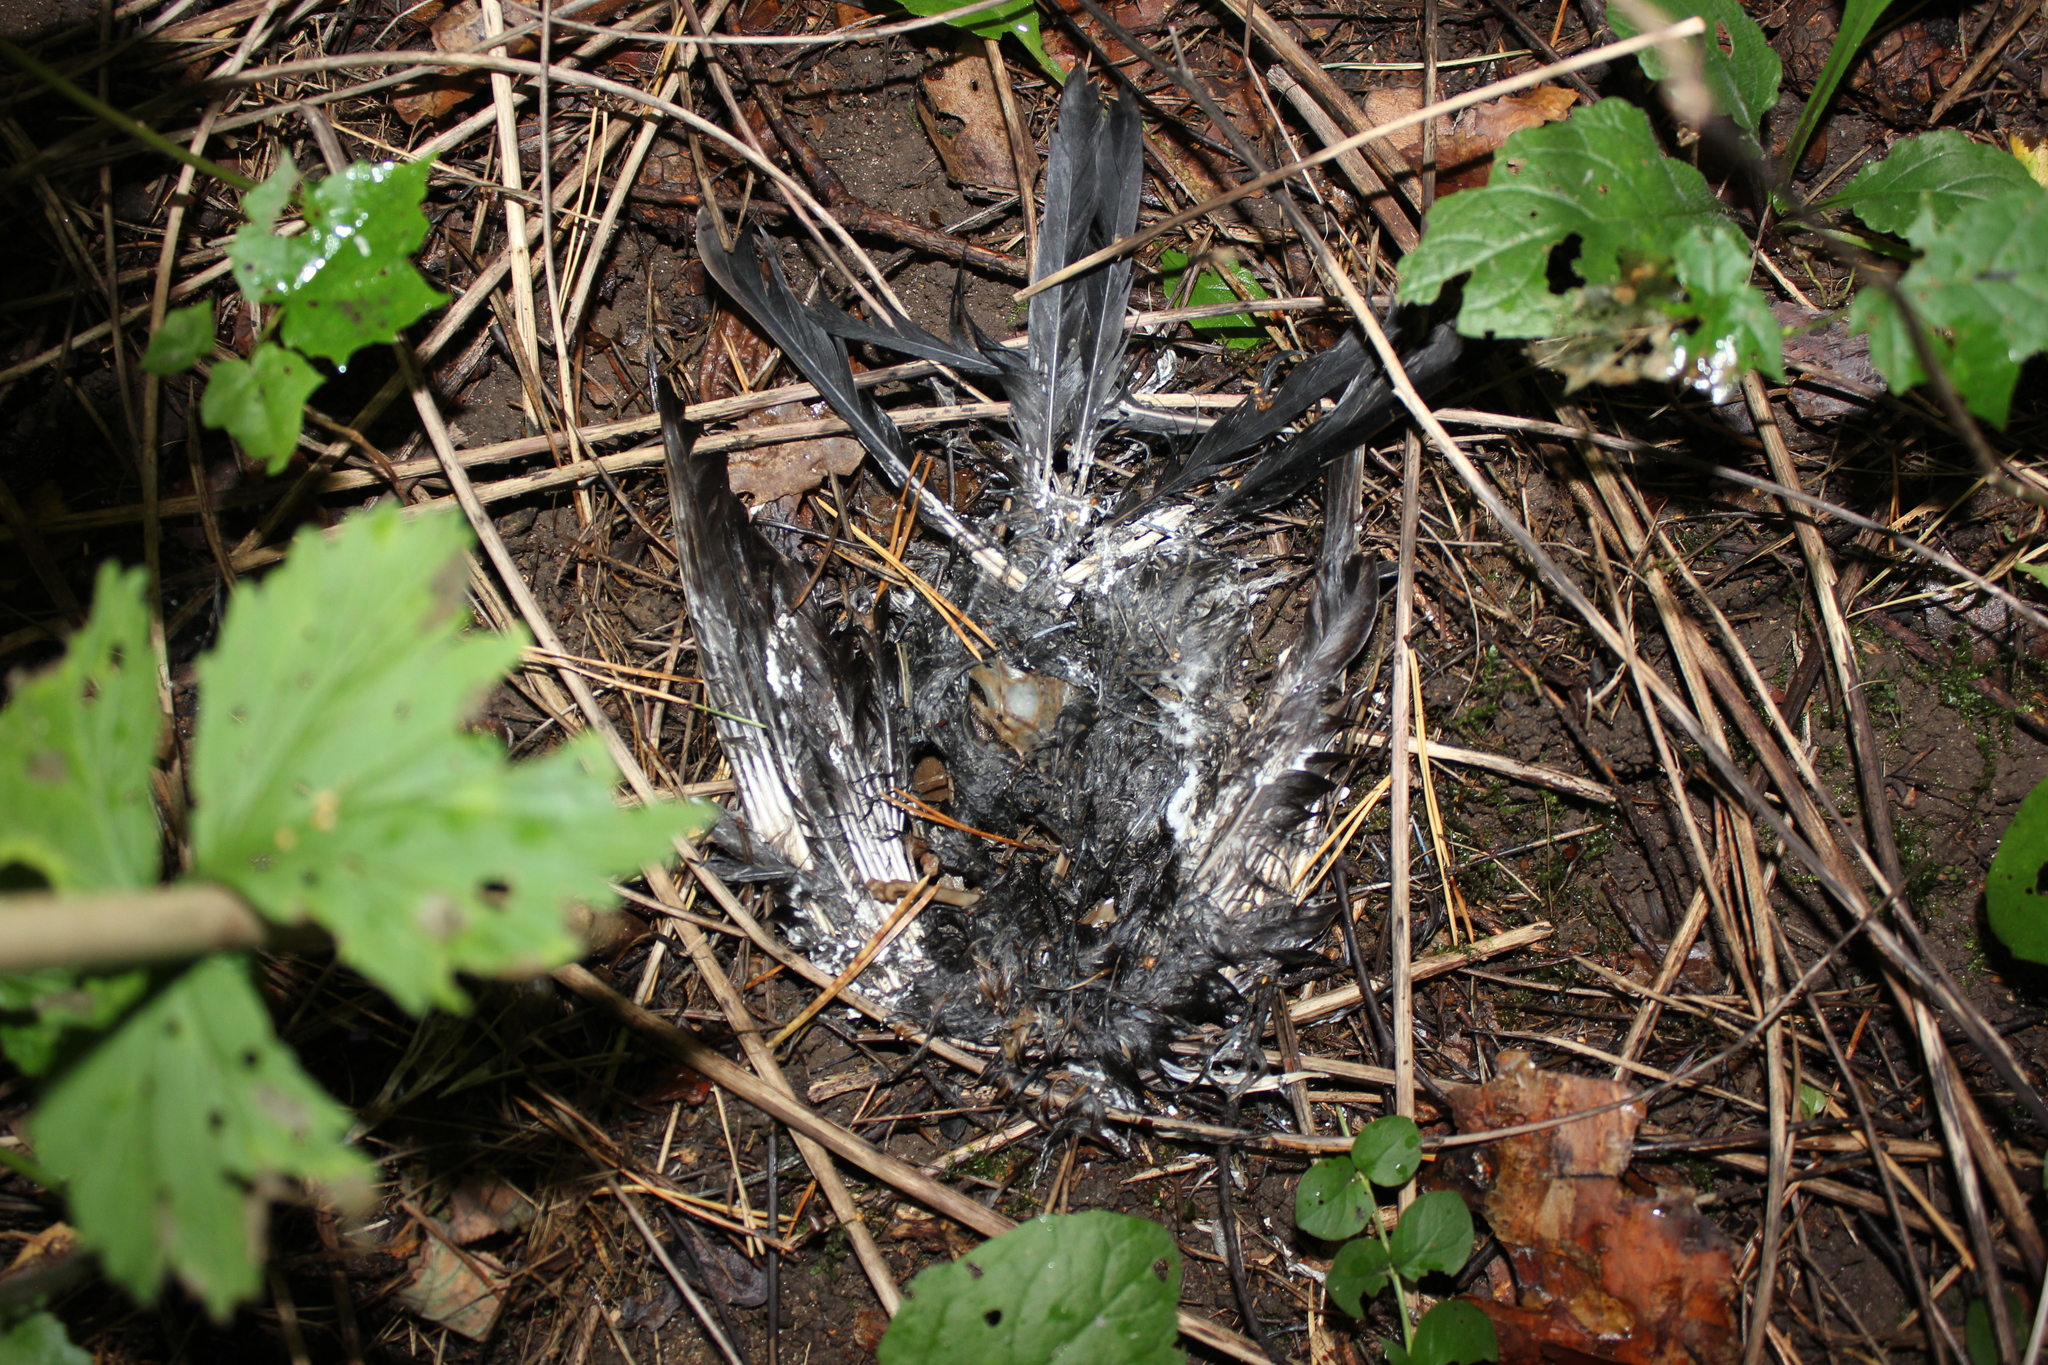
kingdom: Animalia
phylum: Chordata
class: Aves
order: Passeriformes
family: Turdidae
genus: Turdus
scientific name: Turdus merula
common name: Common blackbird
